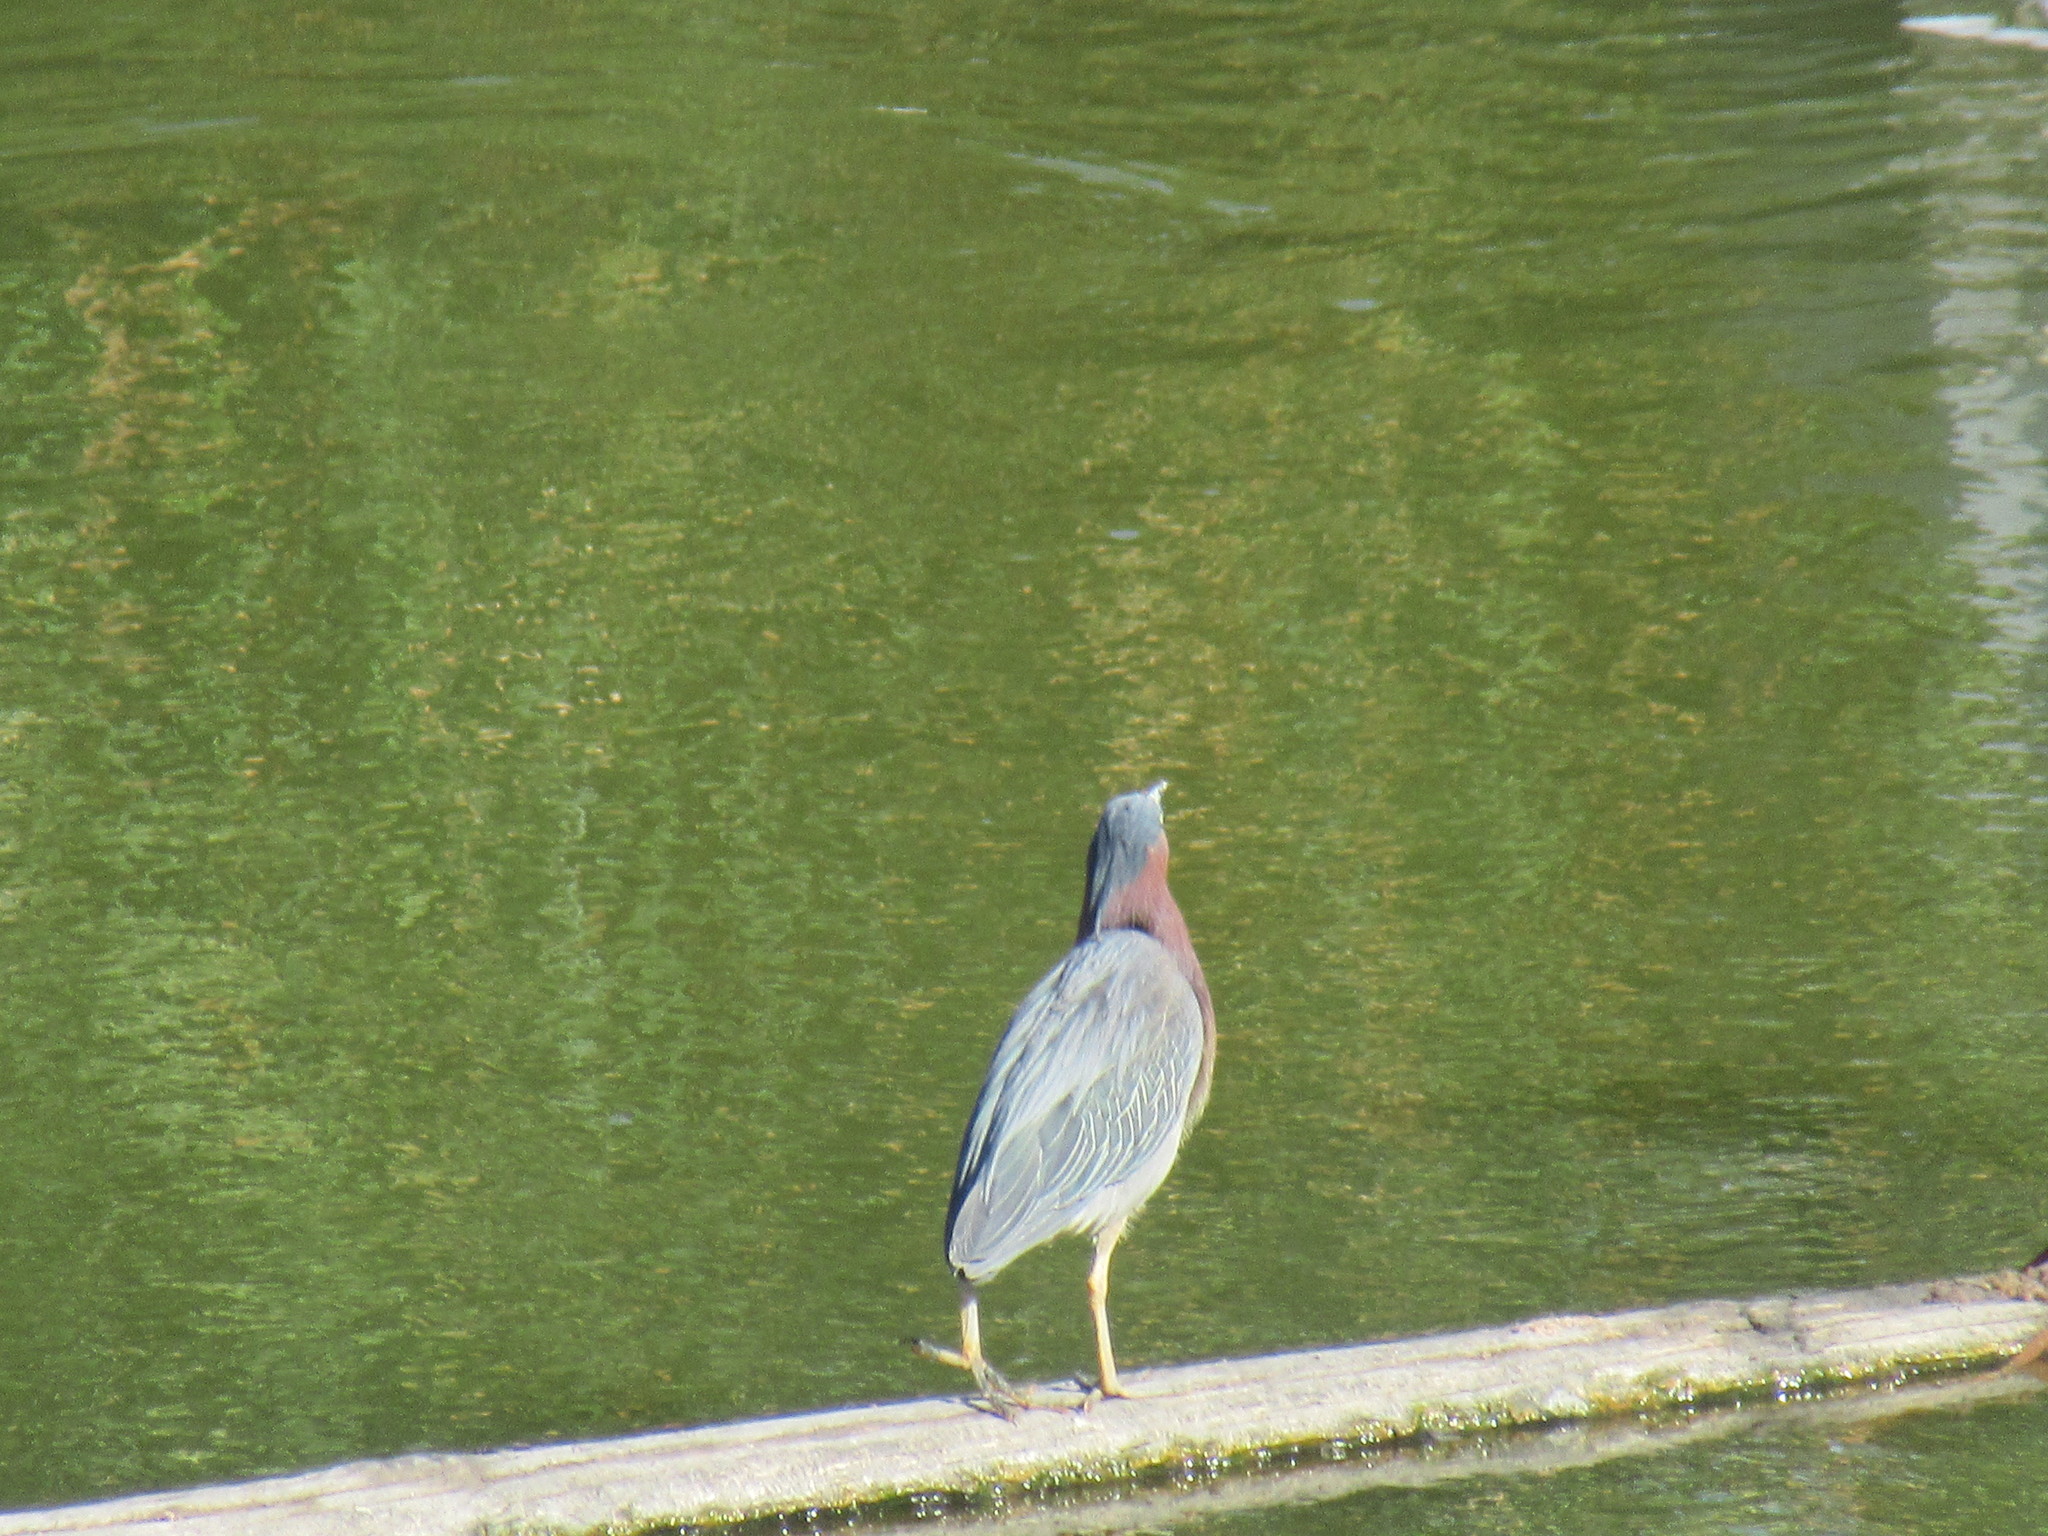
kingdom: Animalia
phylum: Chordata
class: Aves
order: Pelecaniformes
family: Ardeidae
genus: Butorides
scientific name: Butorides virescens
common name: Green heron
